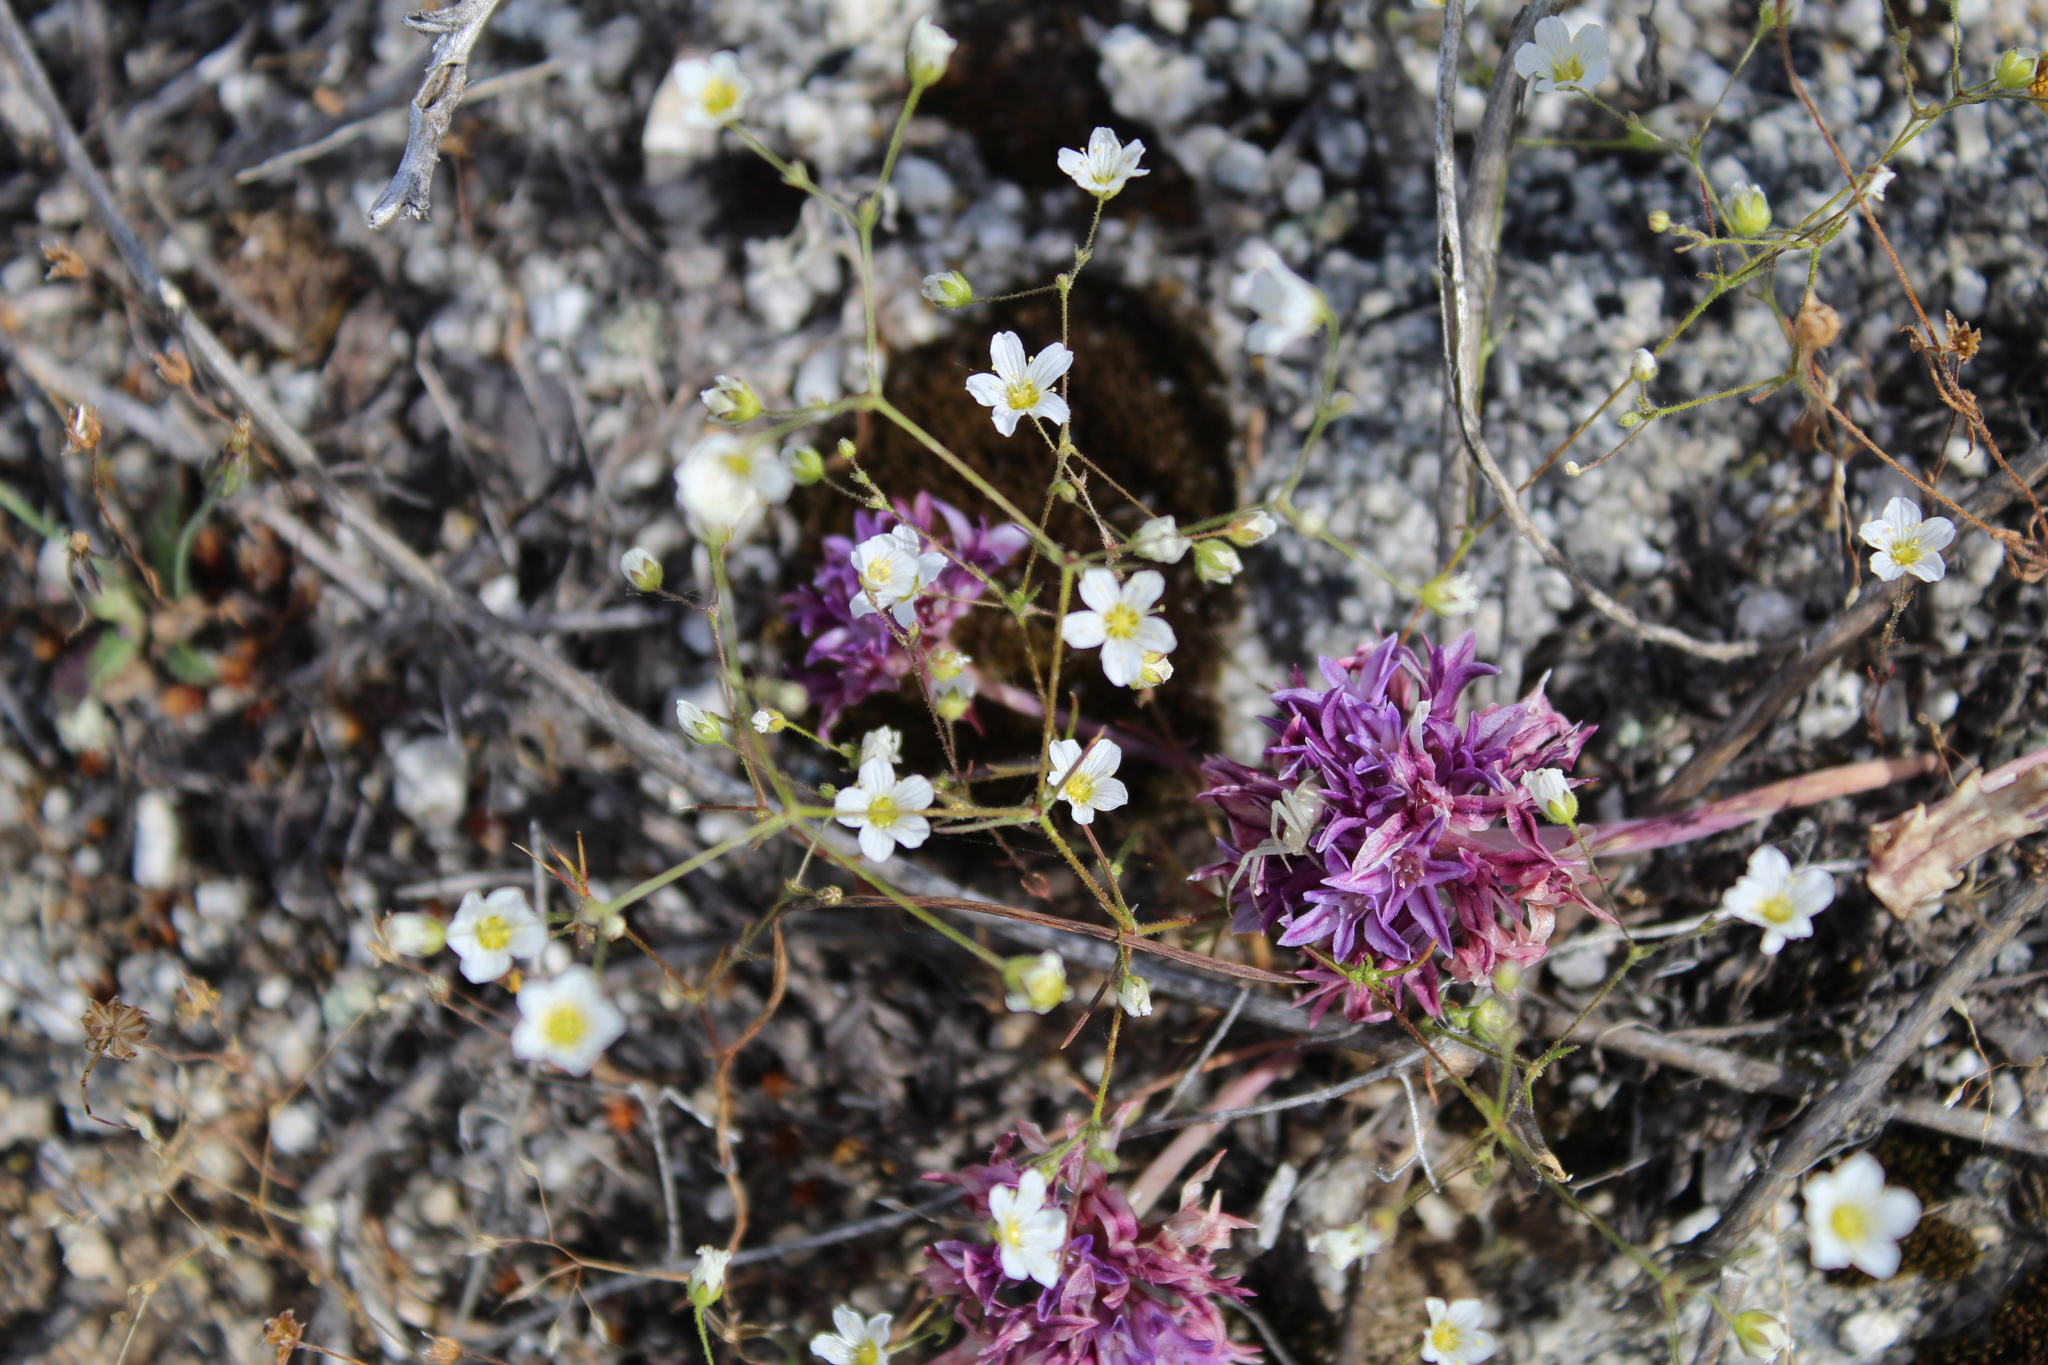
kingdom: Plantae
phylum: Tracheophyta
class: Magnoliopsida
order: Caryophyllales
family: Caryophyllaceae
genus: Eremogone
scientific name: Eremogone kingii
